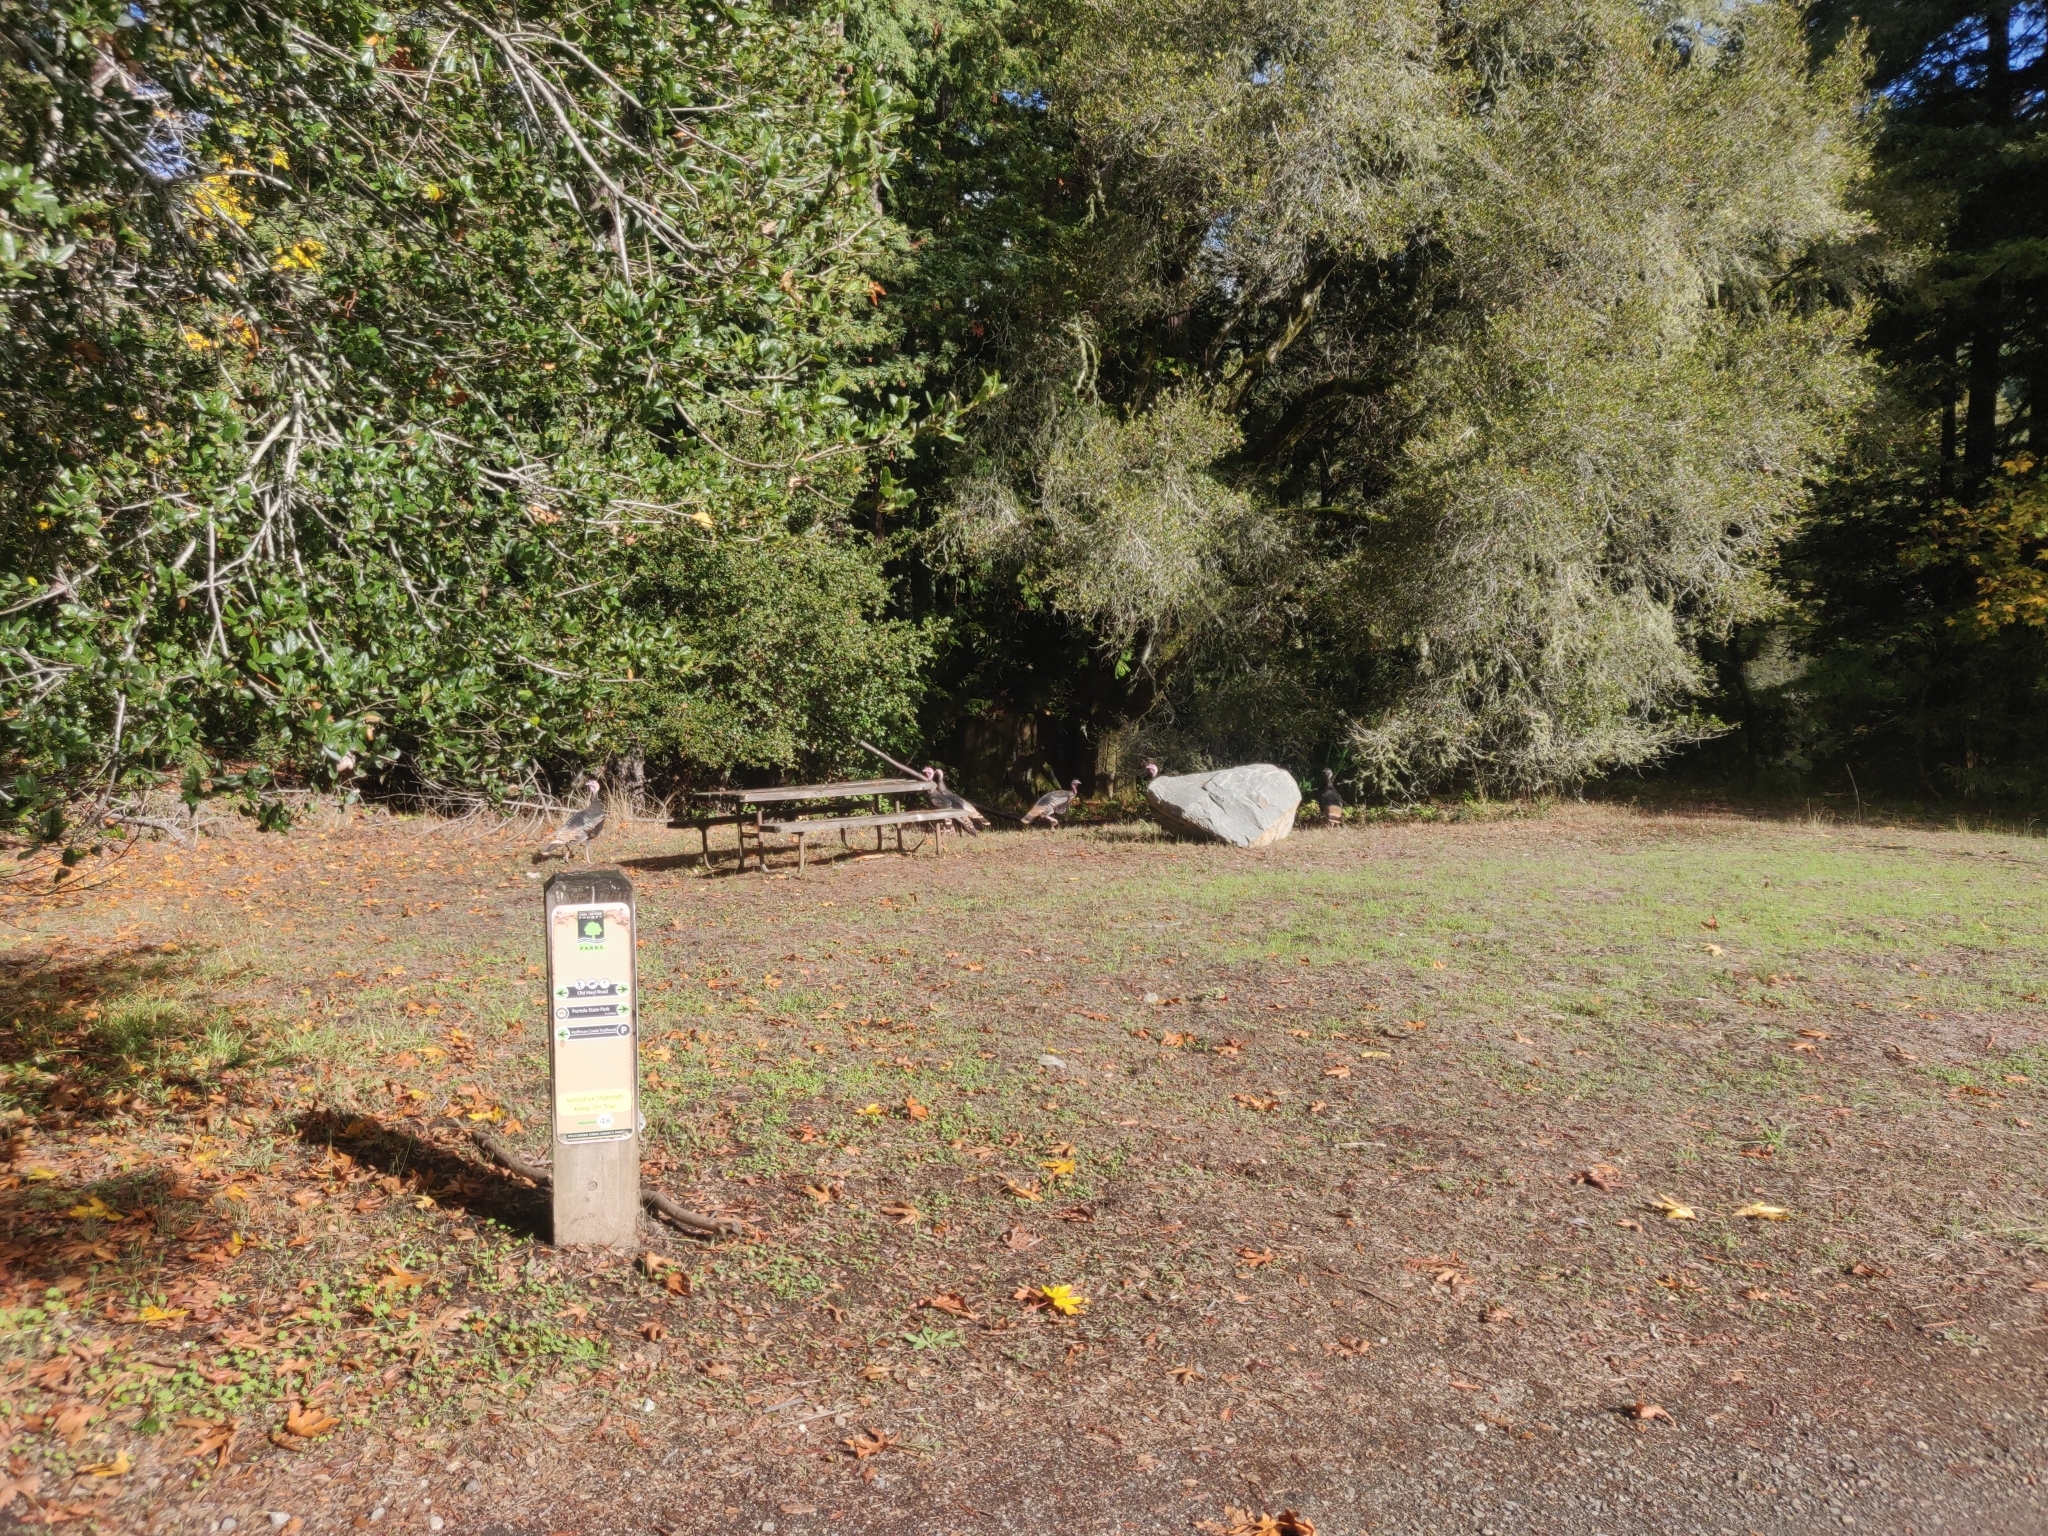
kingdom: Animalia
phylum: Chordata
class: Aves
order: Galliformes
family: Phasianidae
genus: Meleagris
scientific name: Meleagris gallopavo
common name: Wild turkey
